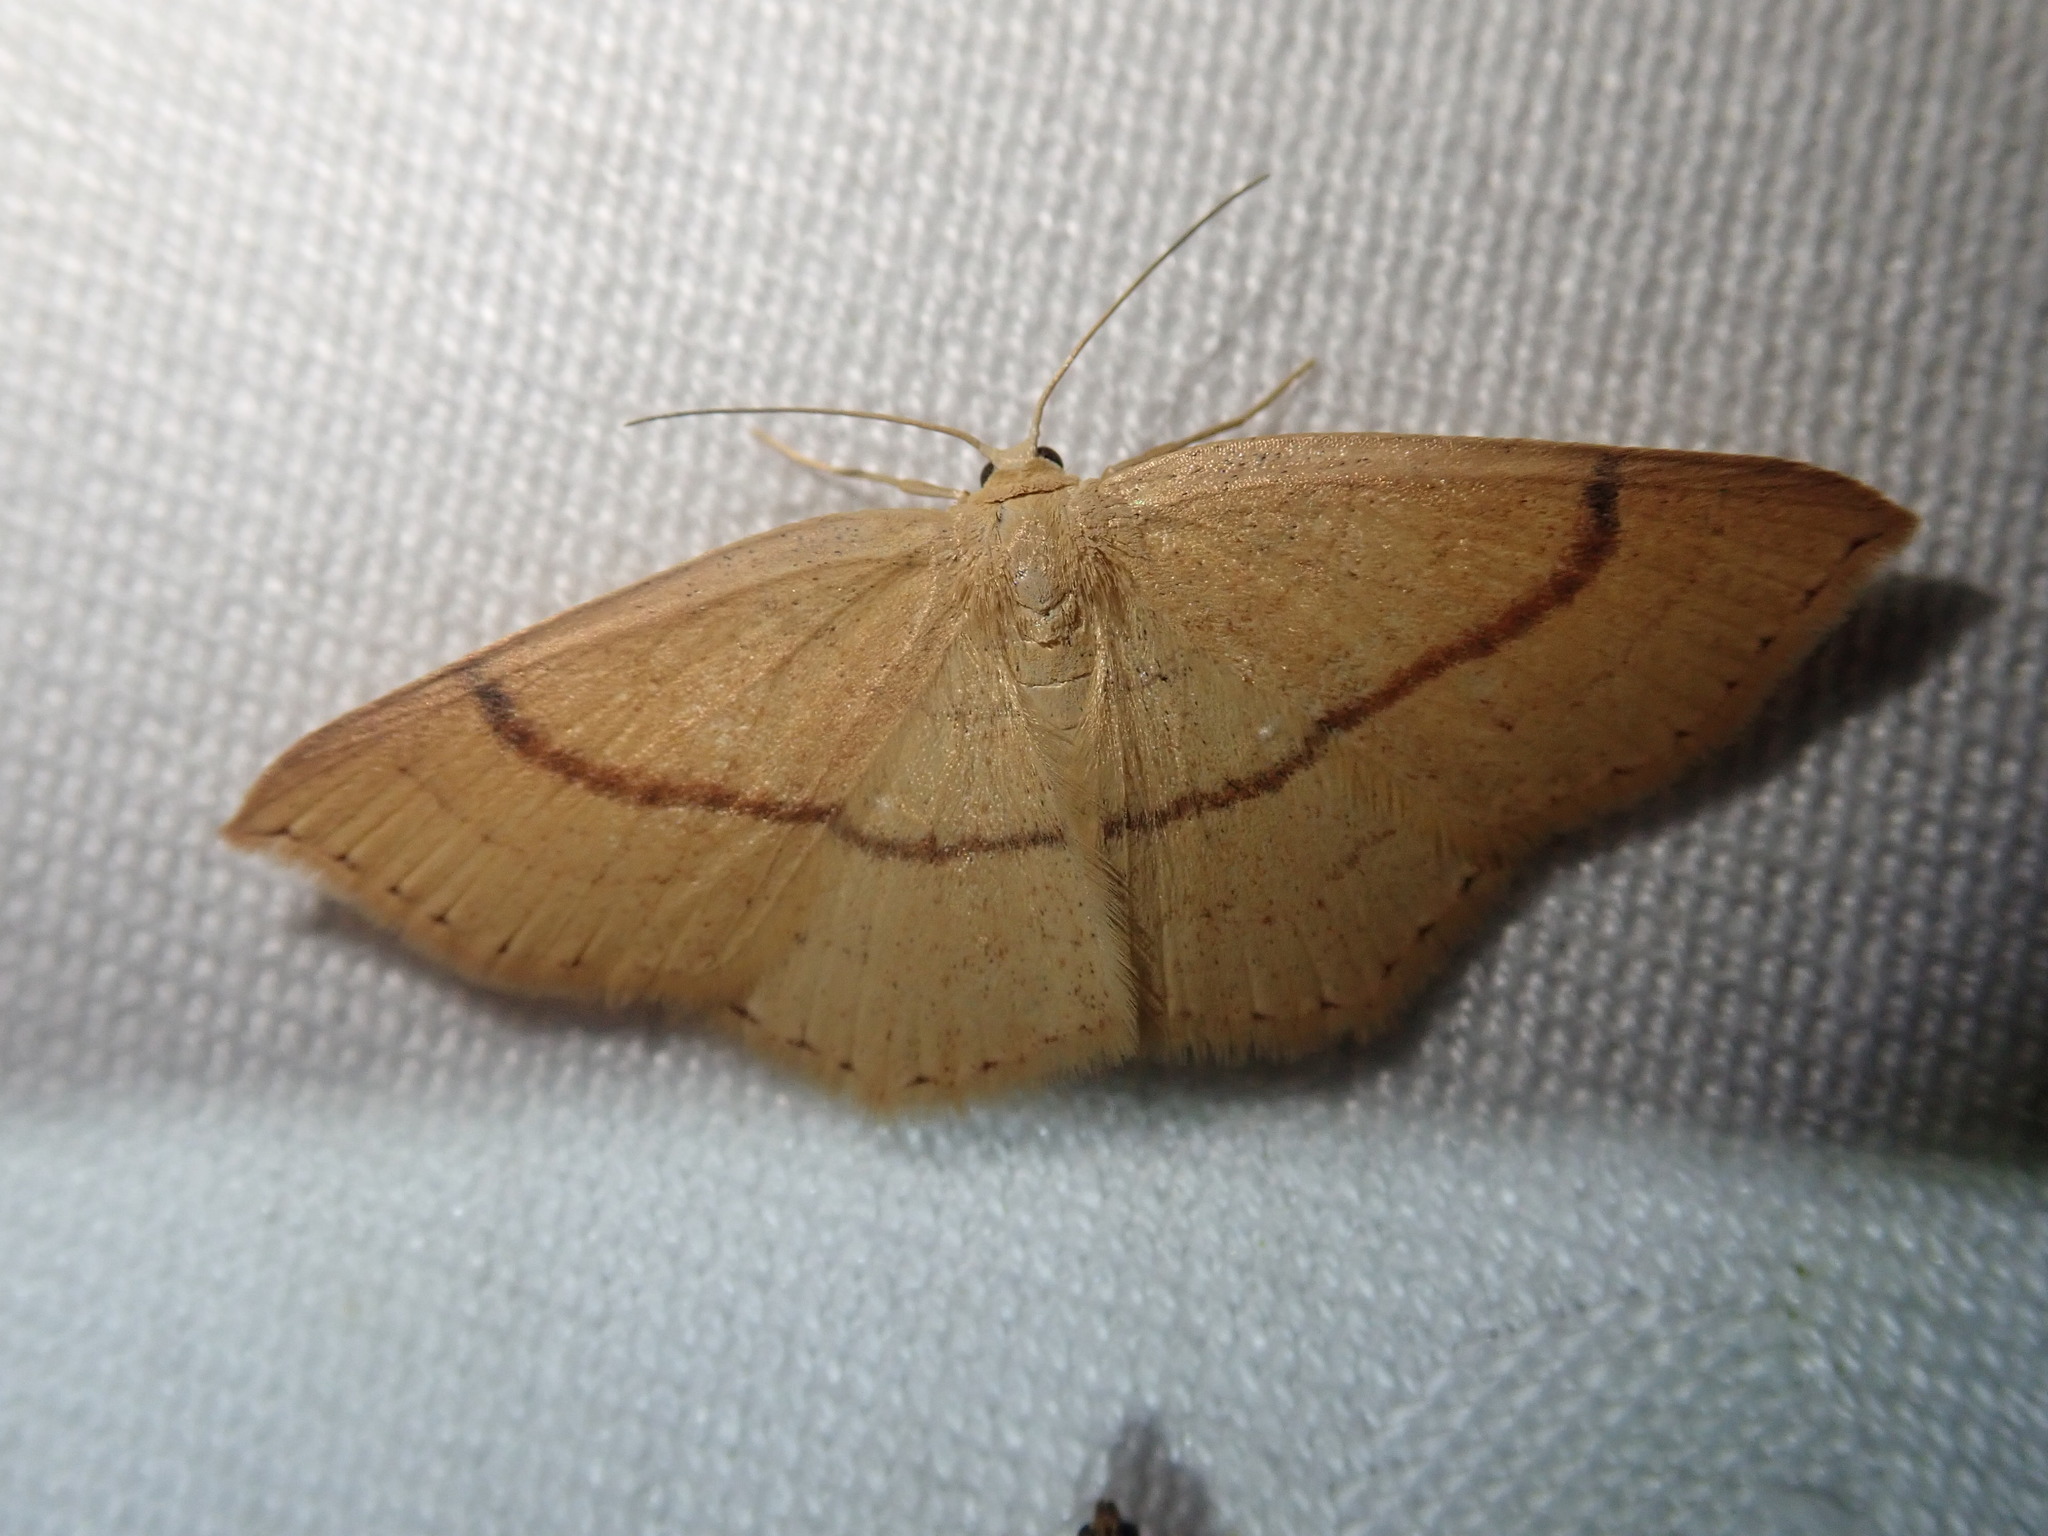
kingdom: Animalia
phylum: Arthropoda
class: Insecta
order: Lepidoptera
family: Geometridae
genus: Cyclophora
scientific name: Cyclophora linearia
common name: Clay triple-lines
